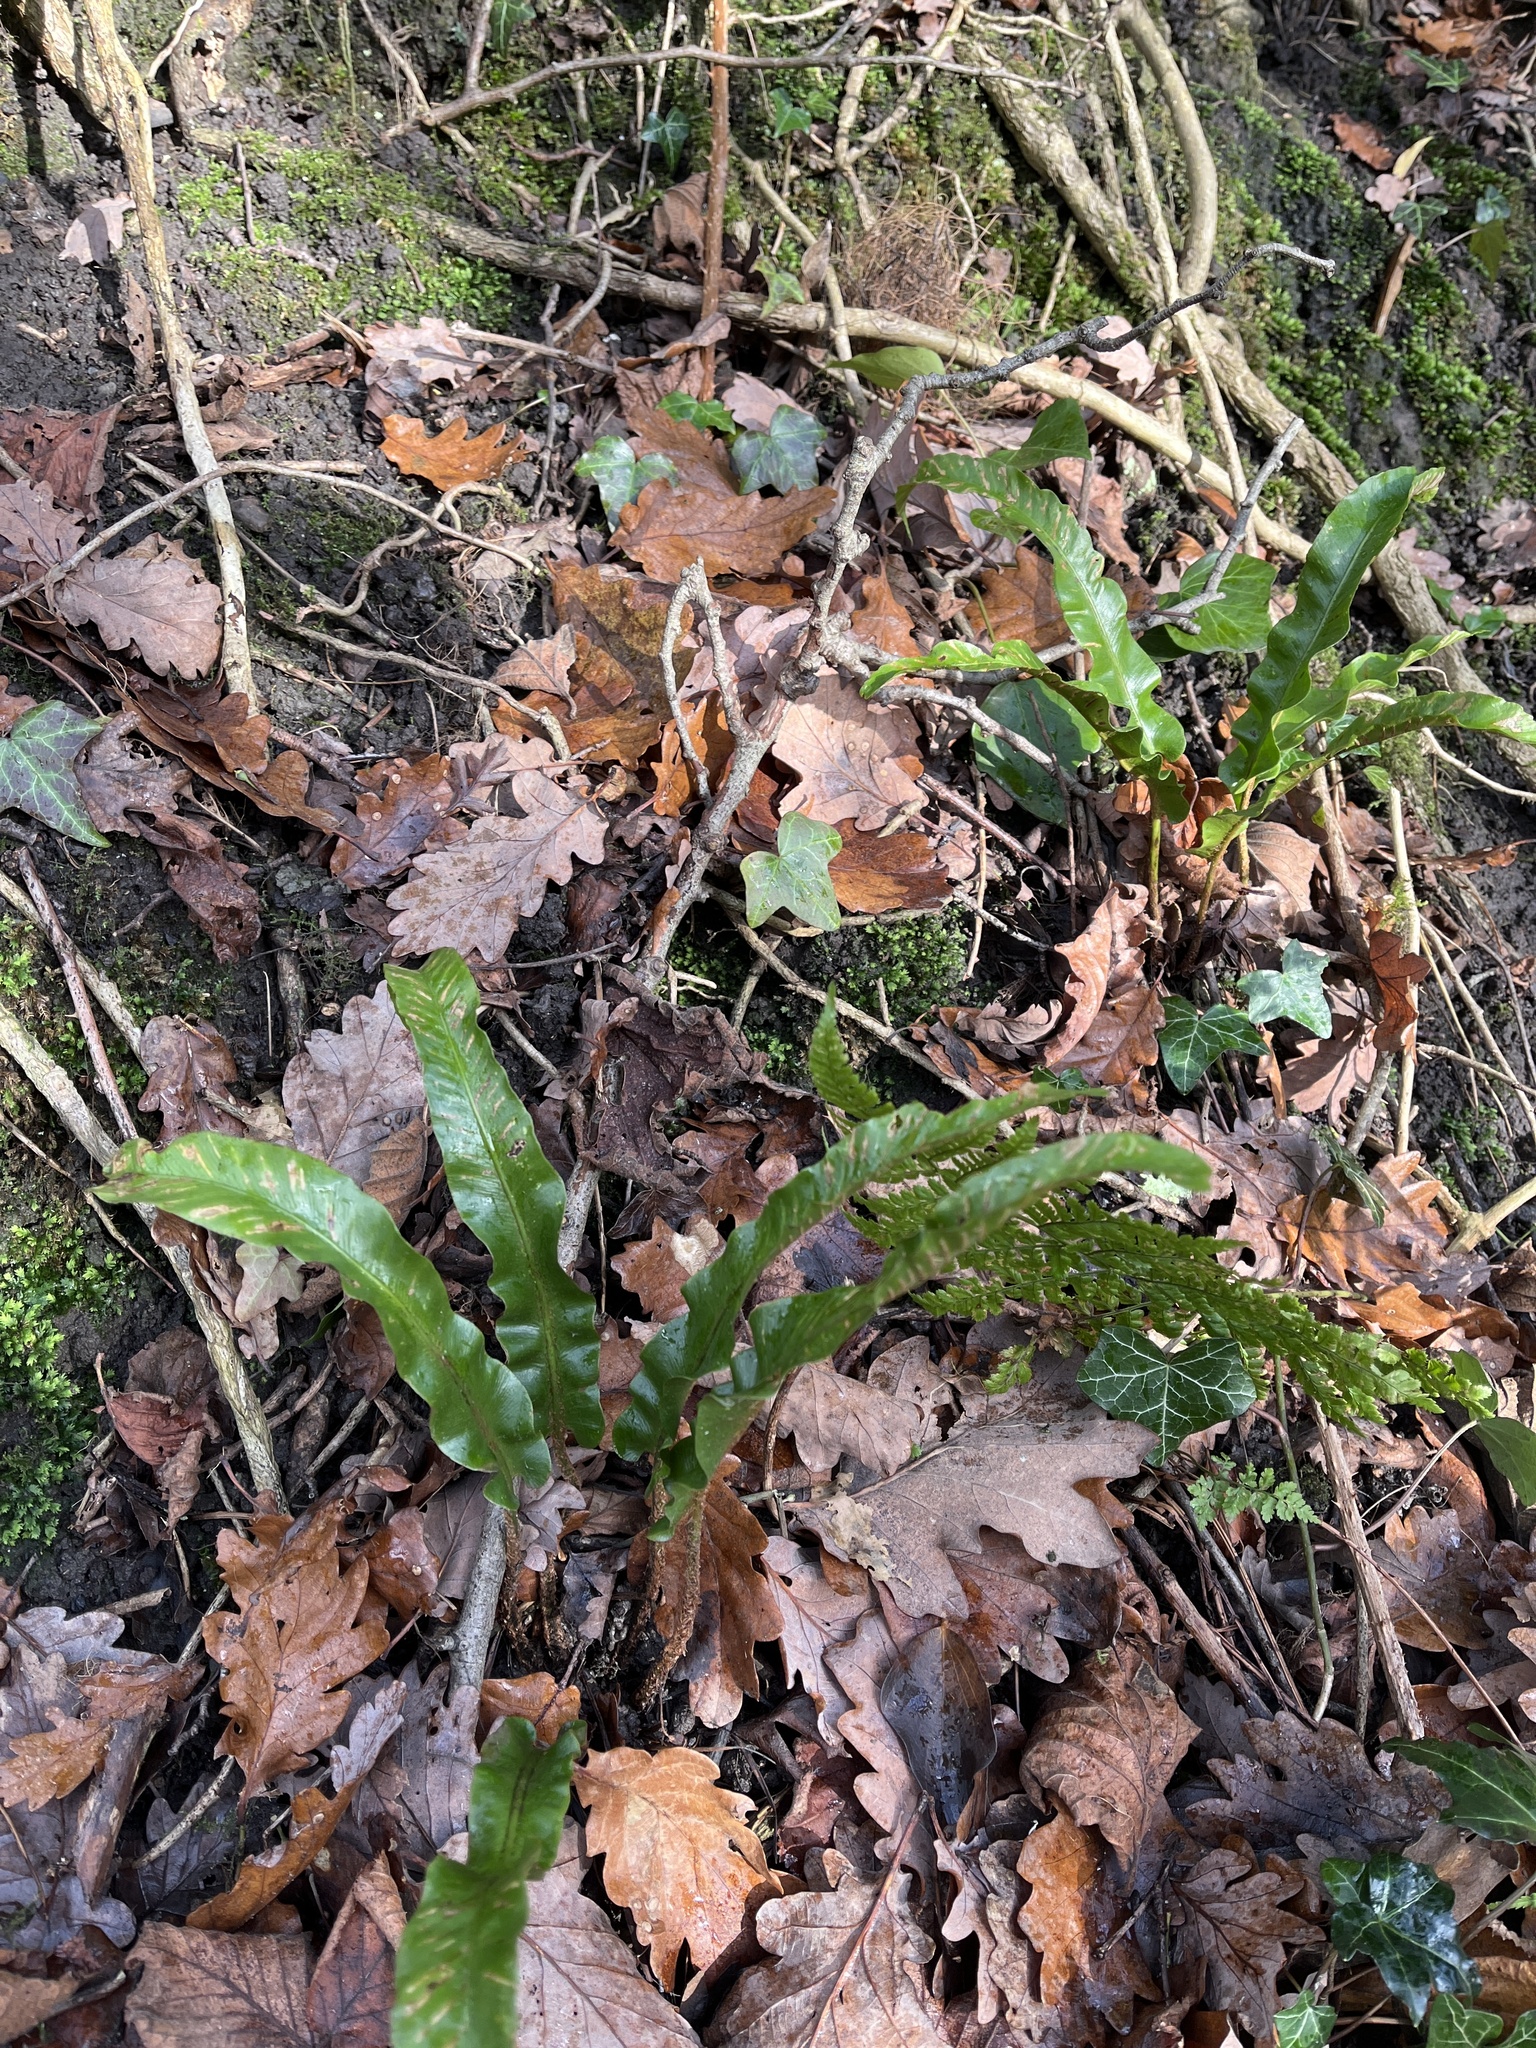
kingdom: Plantae
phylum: Tracheophyta
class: Polypodiopsida
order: Polypodiales
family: Aspleniaceae
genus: Asplenium
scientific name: Asplenium scolopendrium
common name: Hart's-tongue fern
